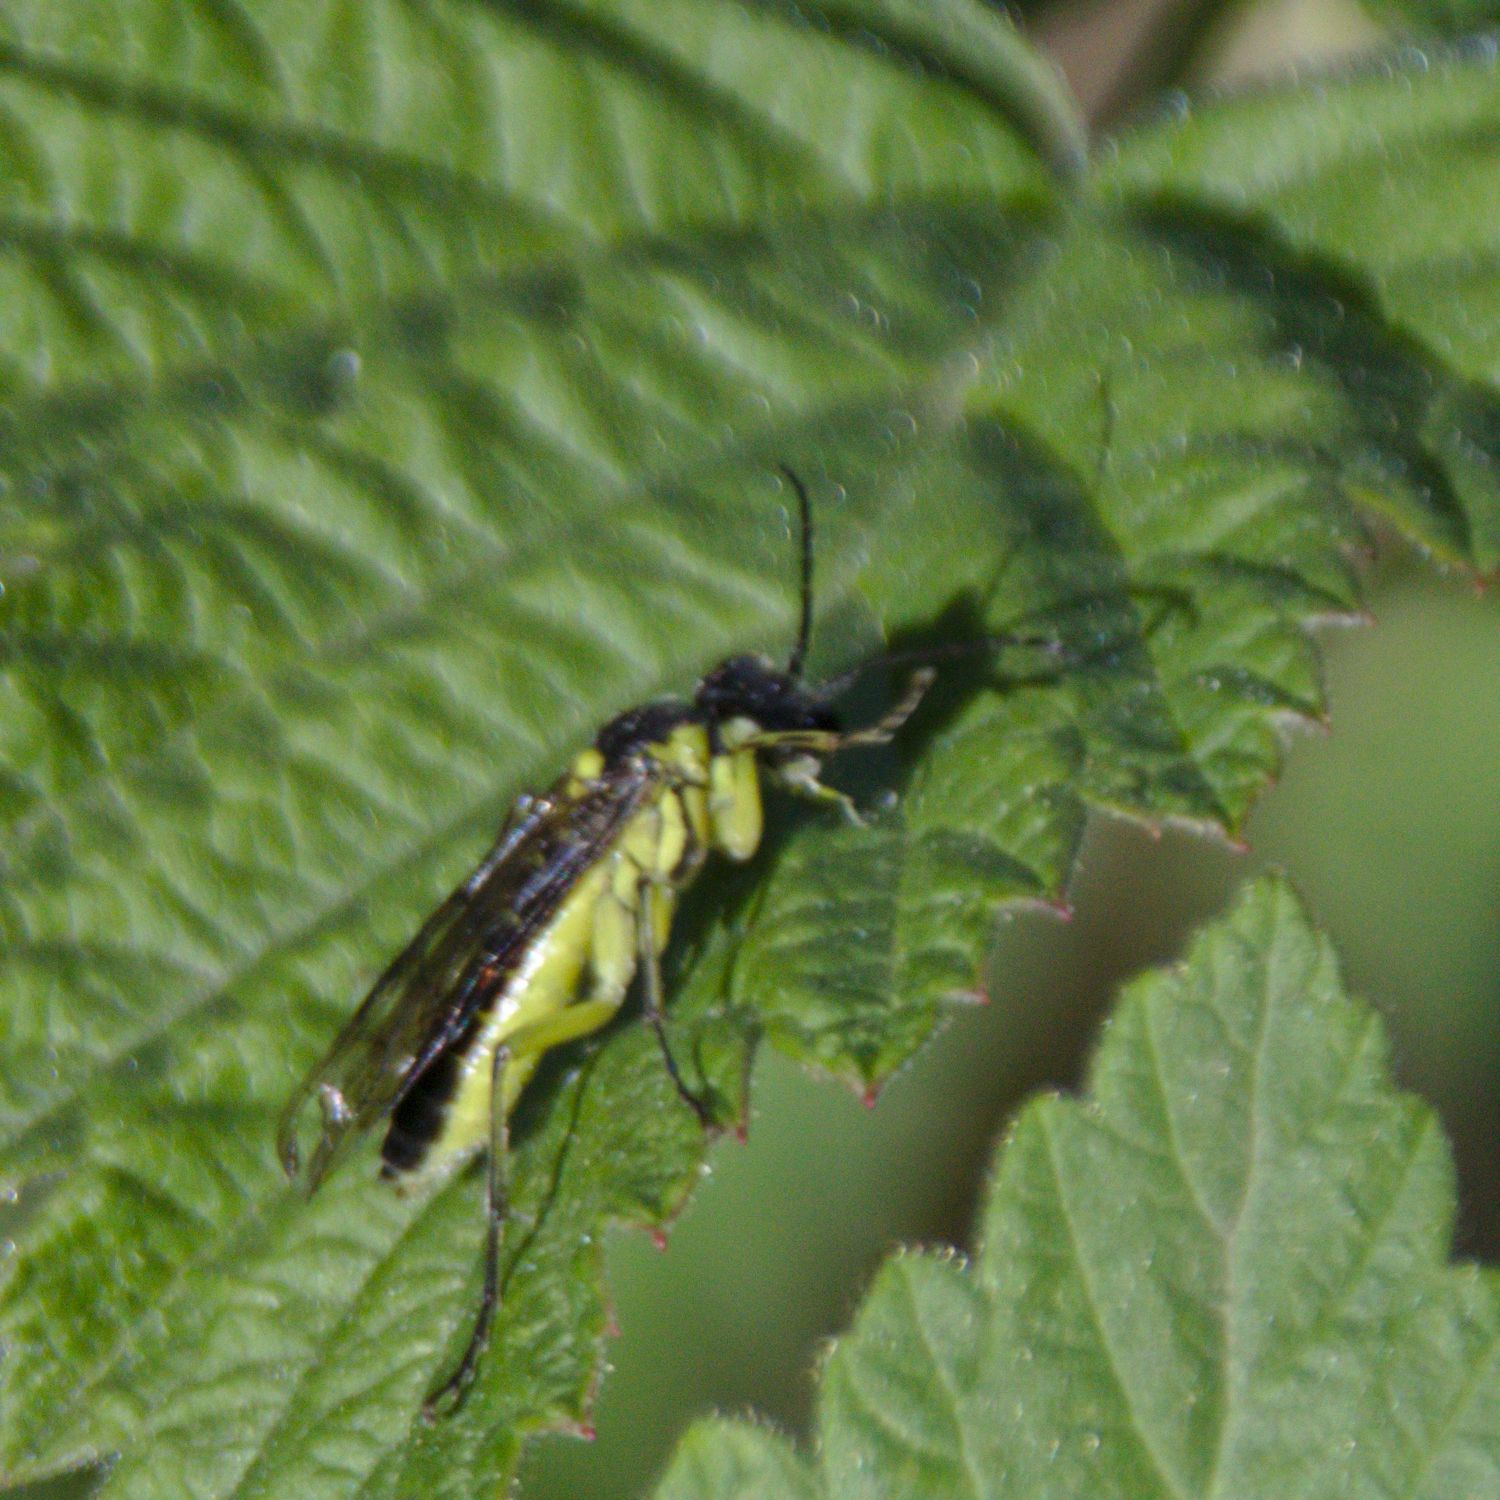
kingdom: Animalia
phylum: Arthropoda
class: Insecta
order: Hymenoptera
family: Tenthredinidae
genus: Tenthredo
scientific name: Tenthredo mesomela
